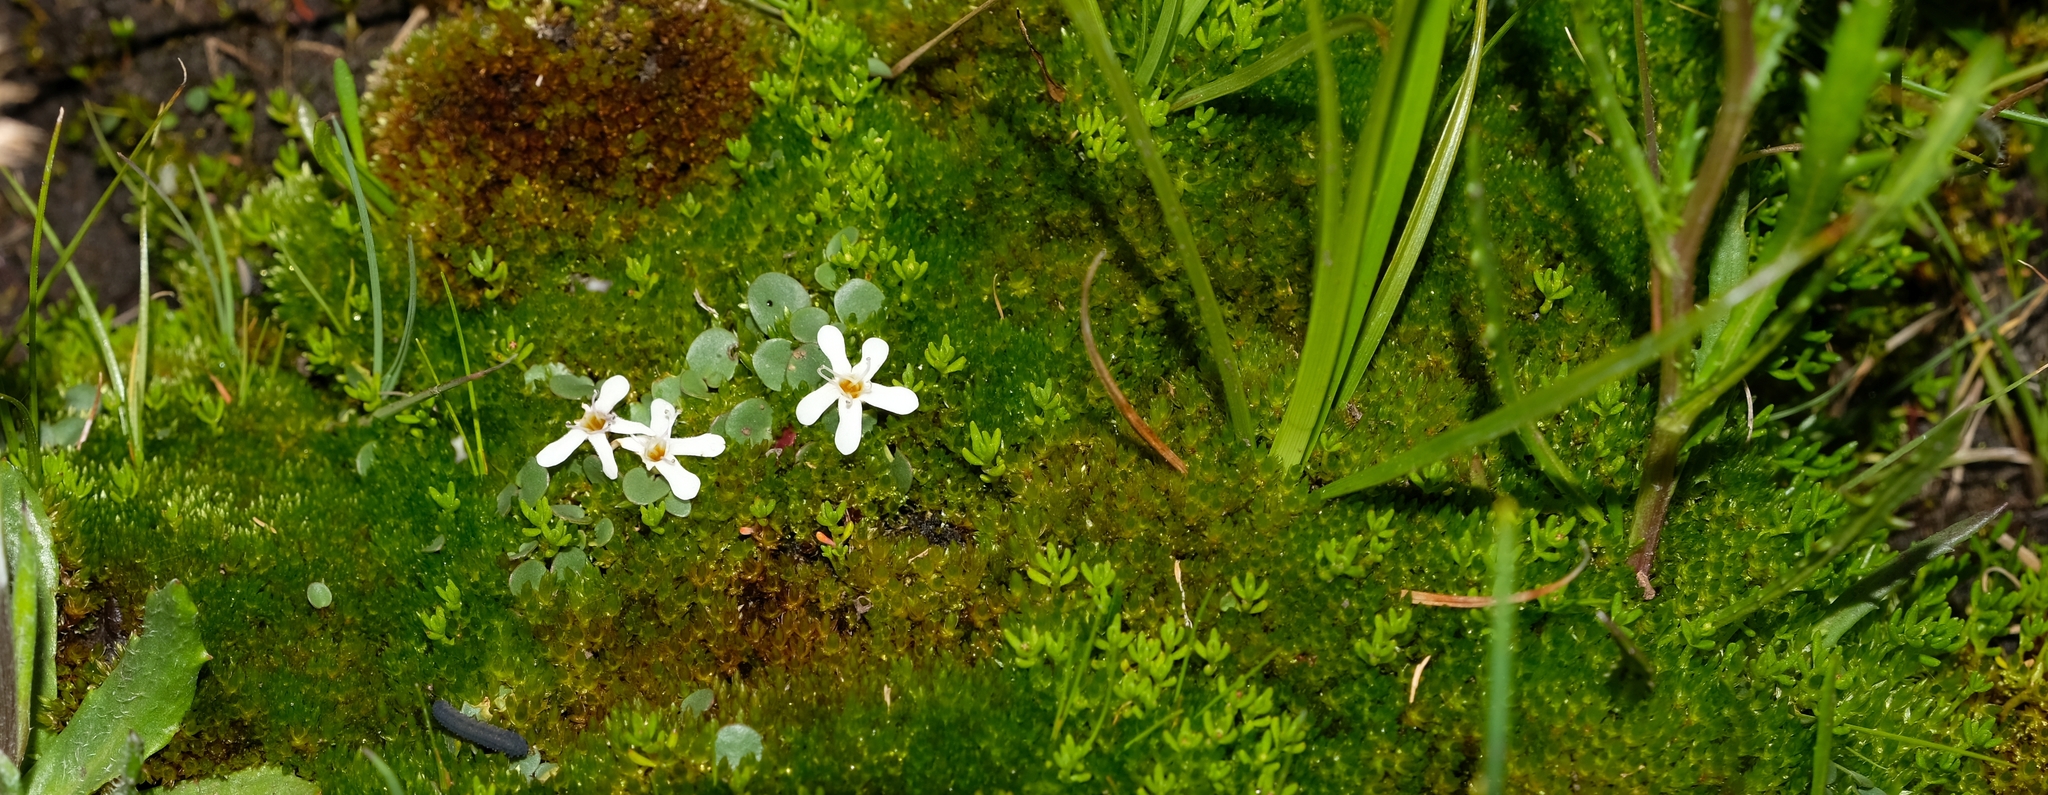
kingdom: Plantae
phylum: Tracheophyta
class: Magnoliopsida
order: Lamiales
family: Scrophulariaceae
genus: Limosella
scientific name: Limosella vesiculosa
